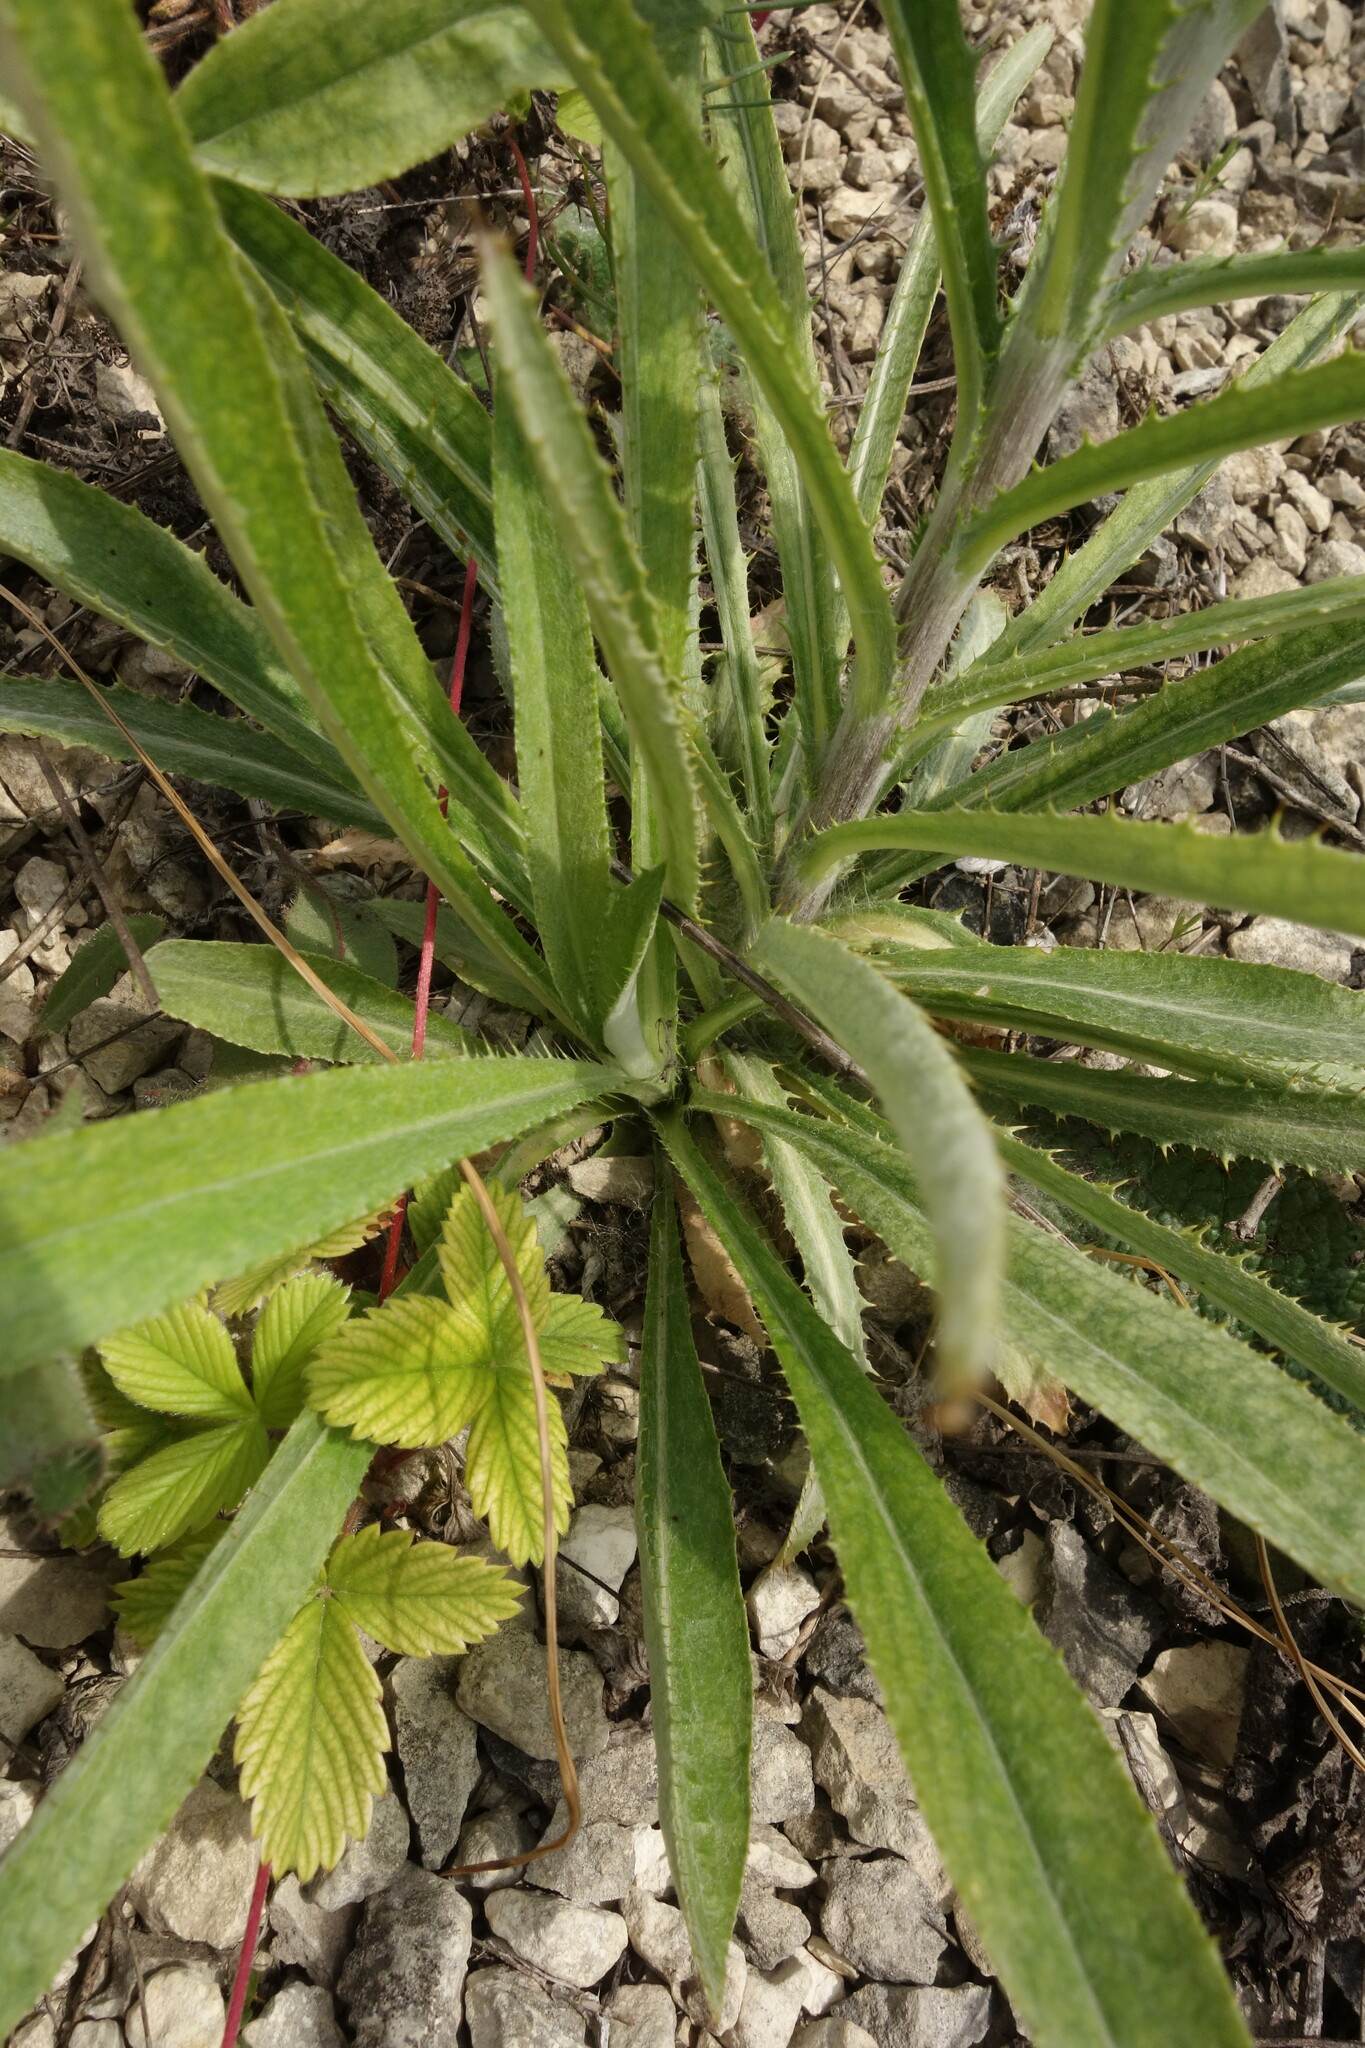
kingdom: Plantae
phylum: Tracheophyta
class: Magnoliopsida
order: Asterales
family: Asteraceae
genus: Carlina
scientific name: Carlina biebersteinii
